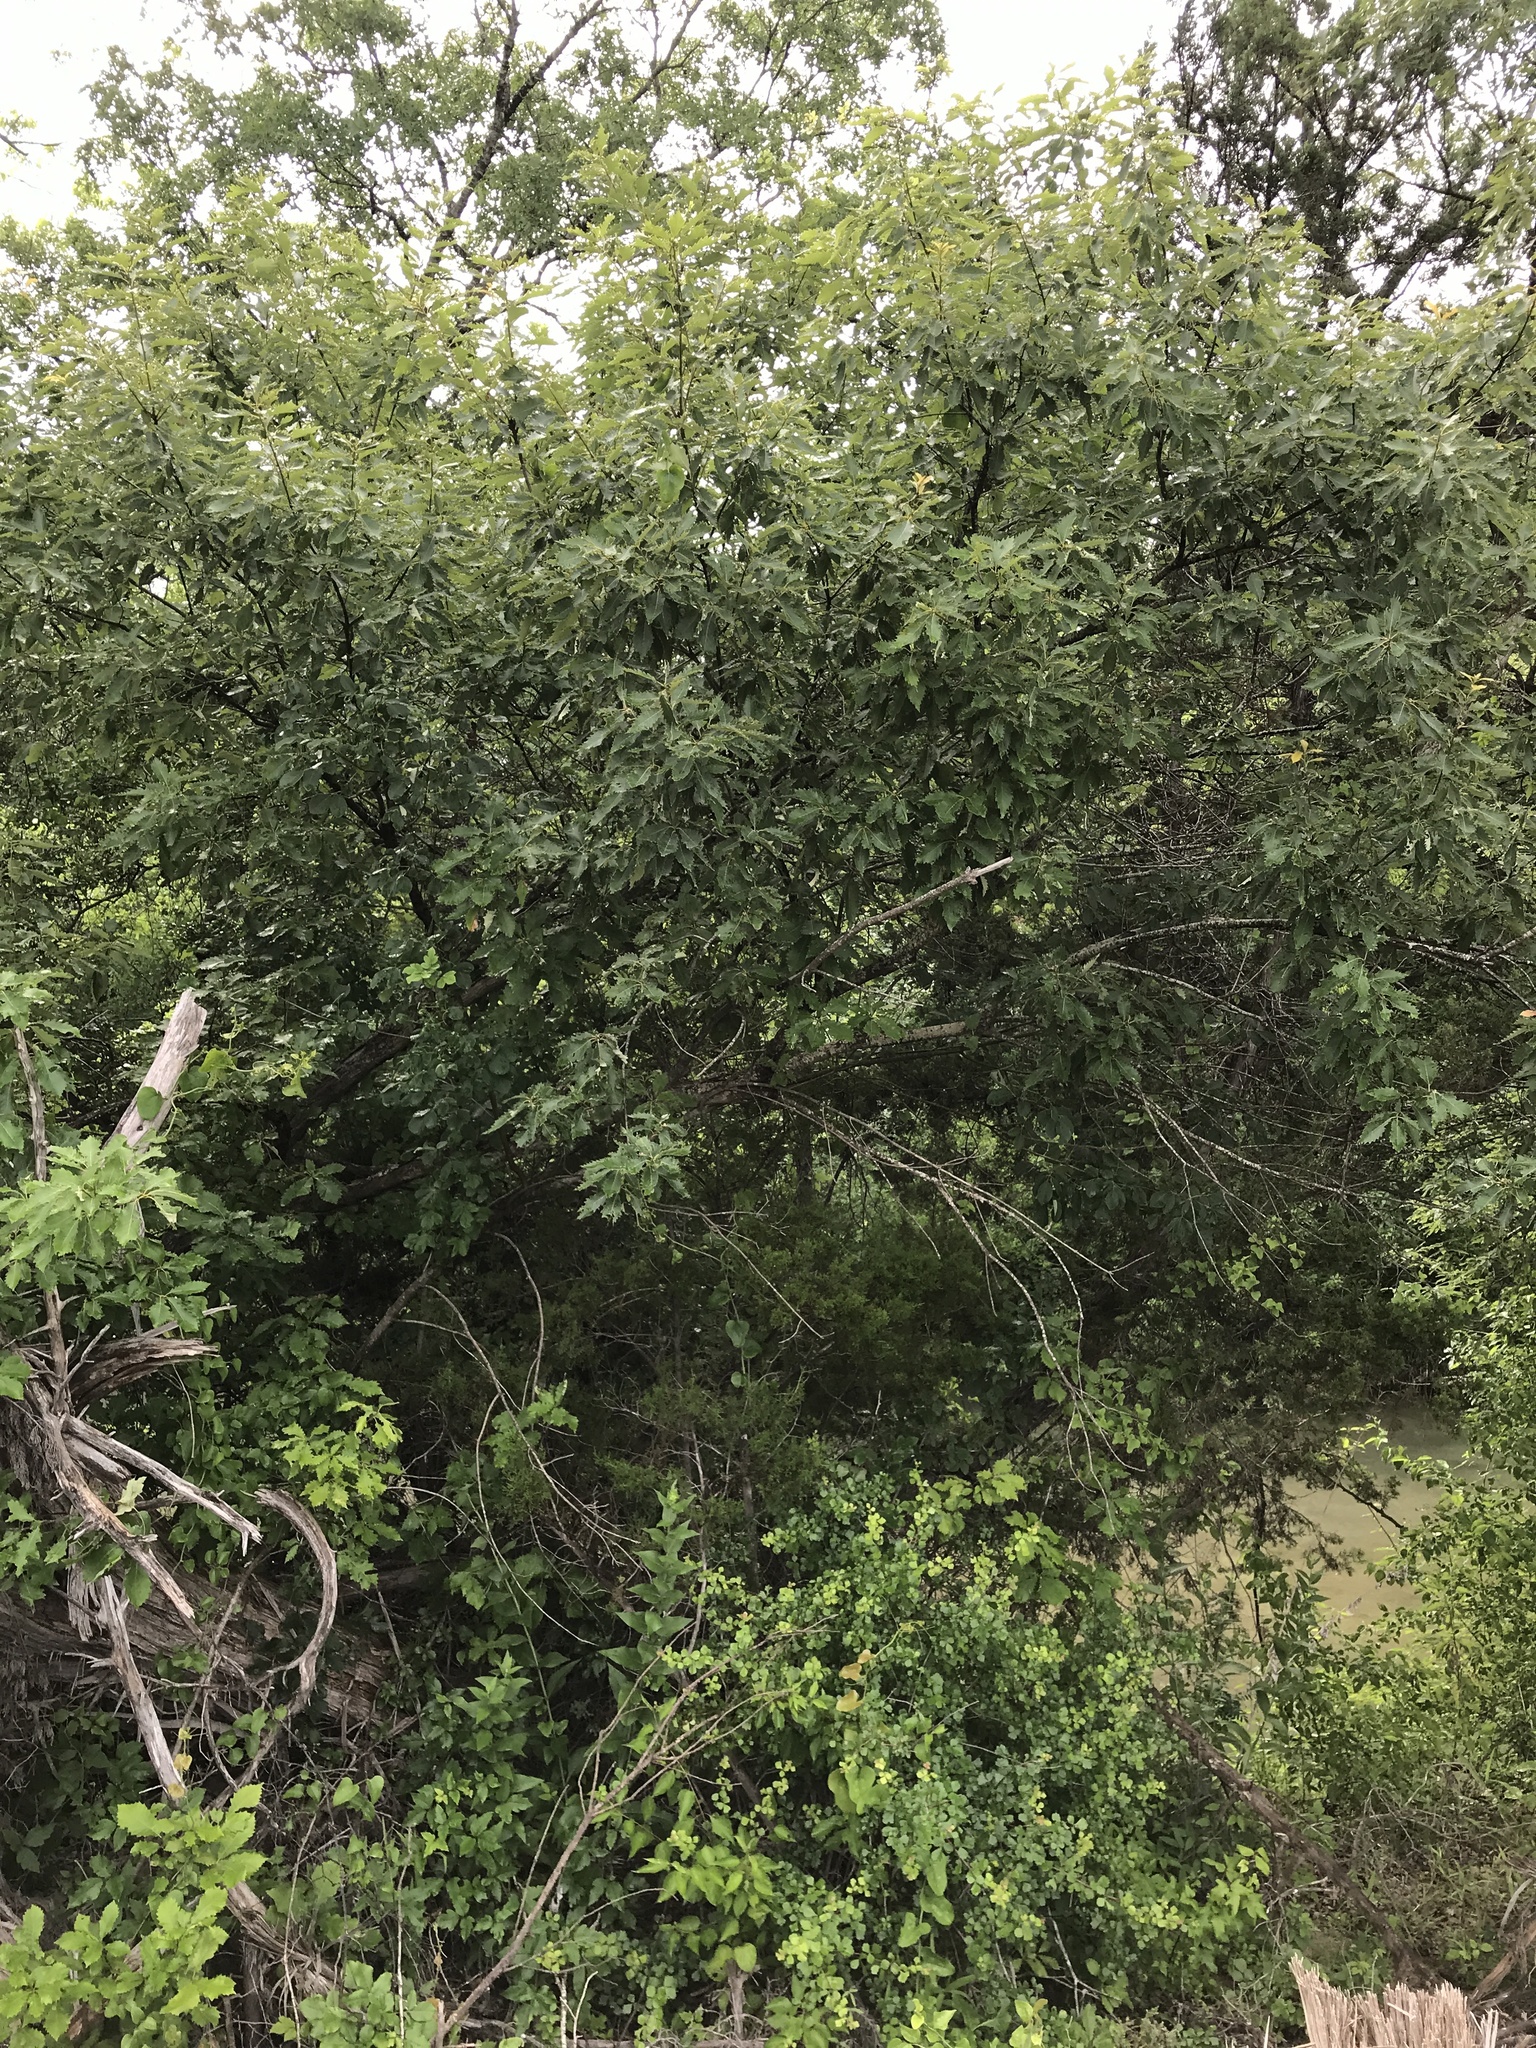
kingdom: Plantae
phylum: Tracheophyta
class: Magnoliopsida
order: Fagales
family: Fagaceae
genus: Quercus
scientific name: Quercus muehlenbergii
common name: Chinkapin oak
